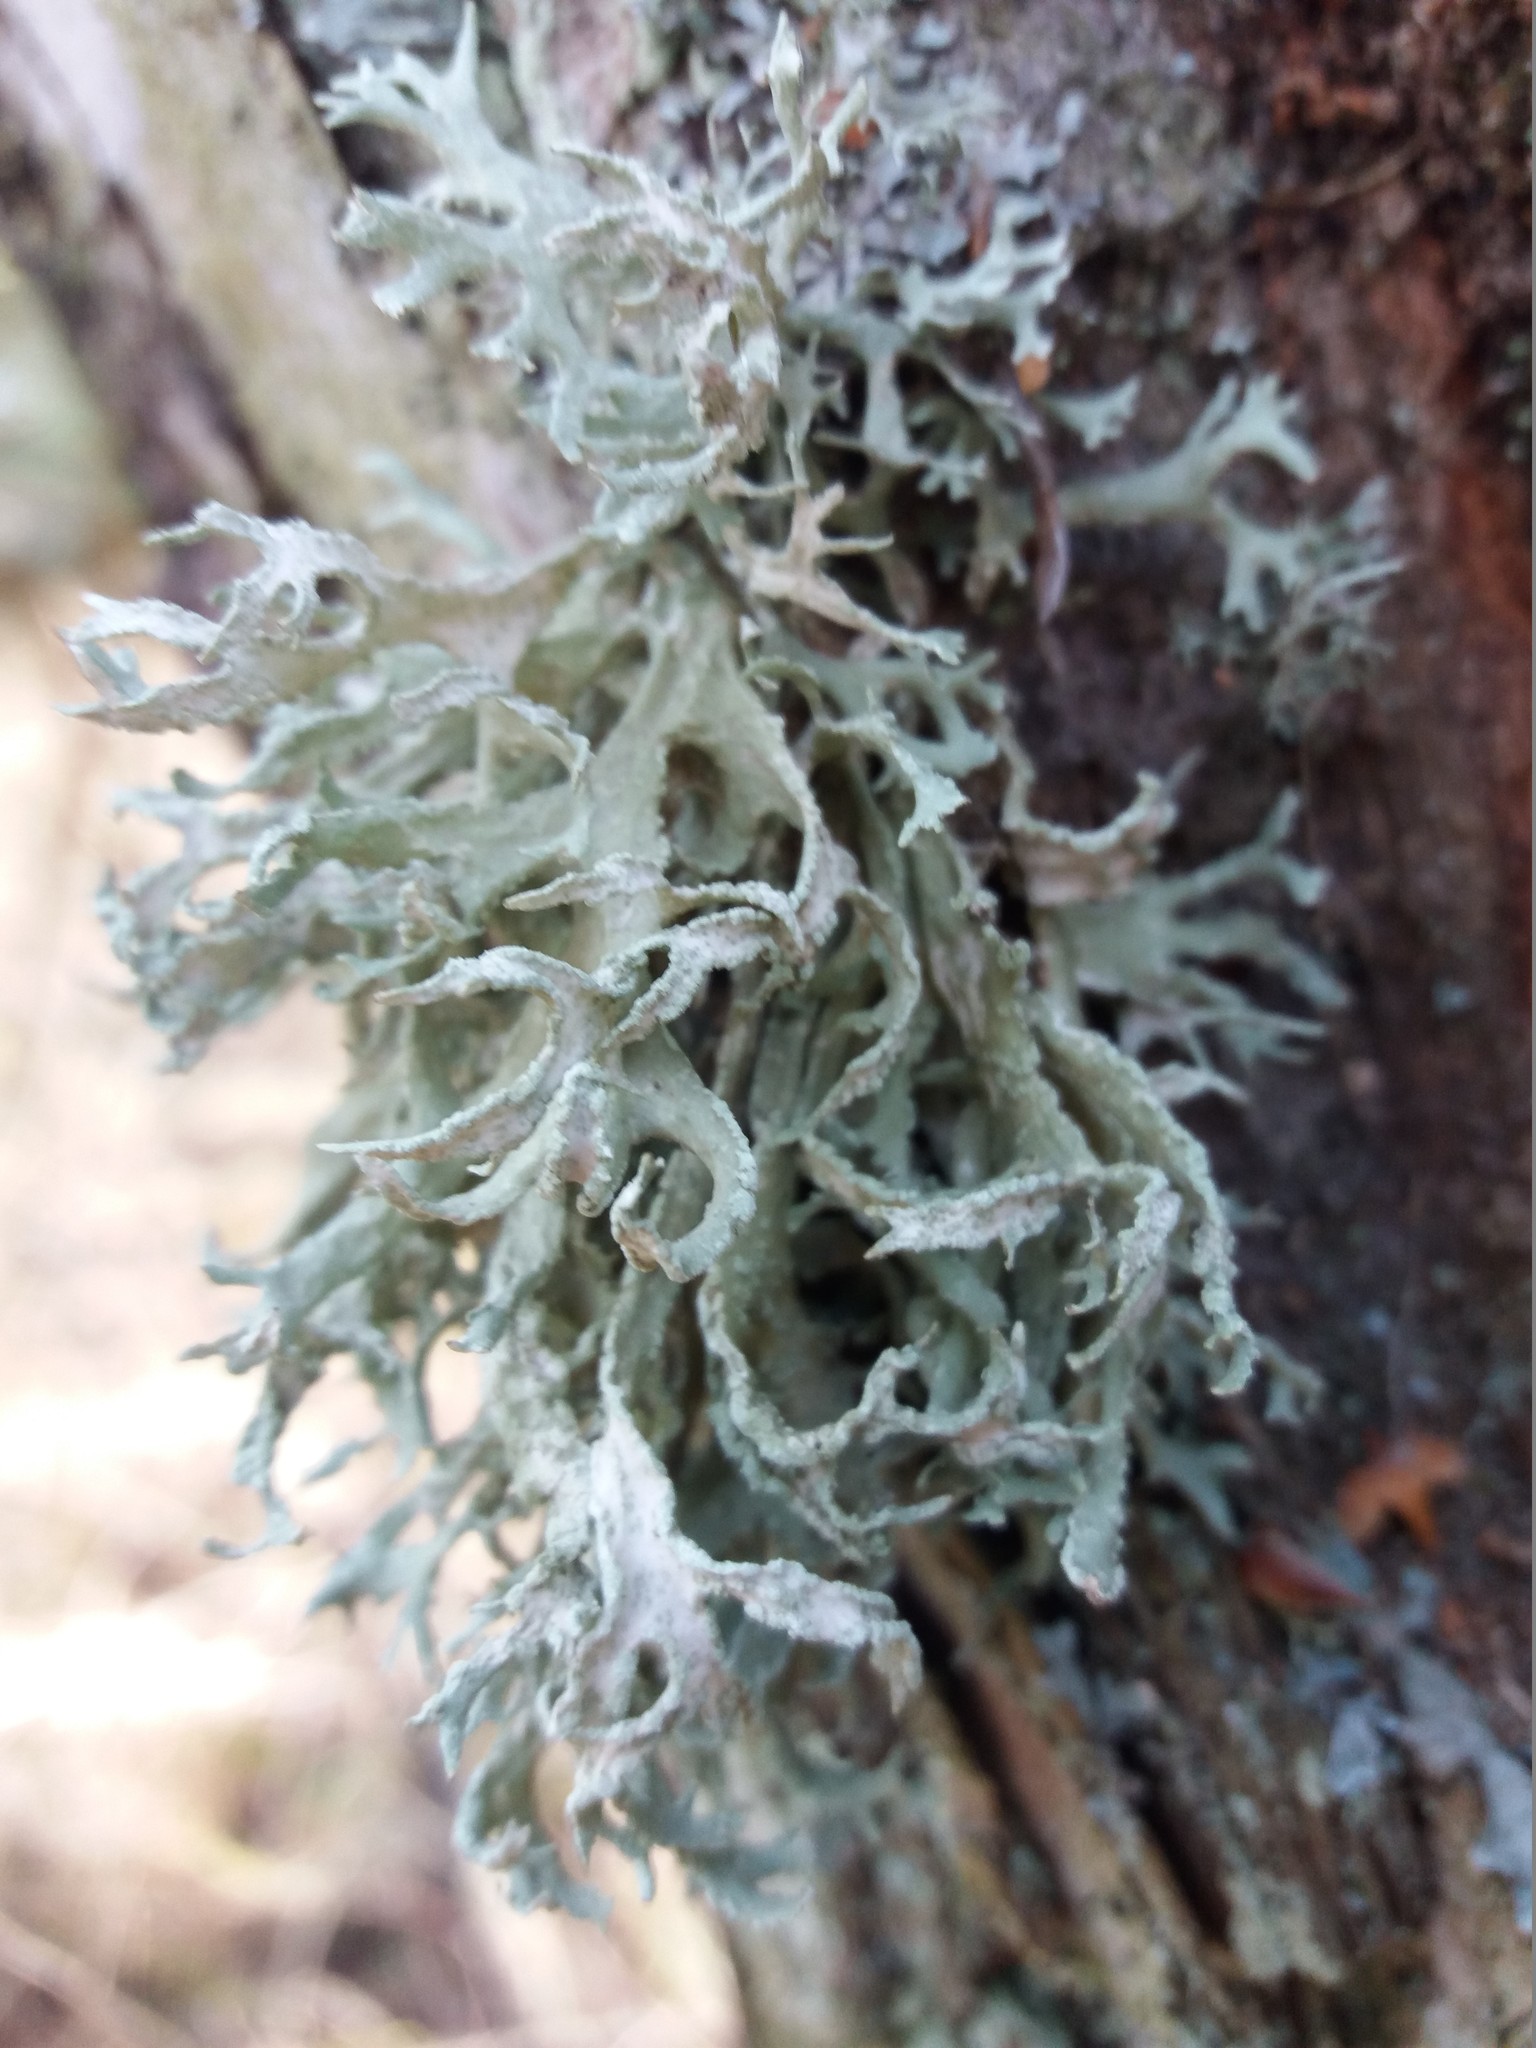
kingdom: Fungi
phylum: Ascomycota
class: Lecanoromycetes
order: Lecanorales
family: Parmeliaceae
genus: Evernia
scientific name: Evernia prunastri
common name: Oak moss
